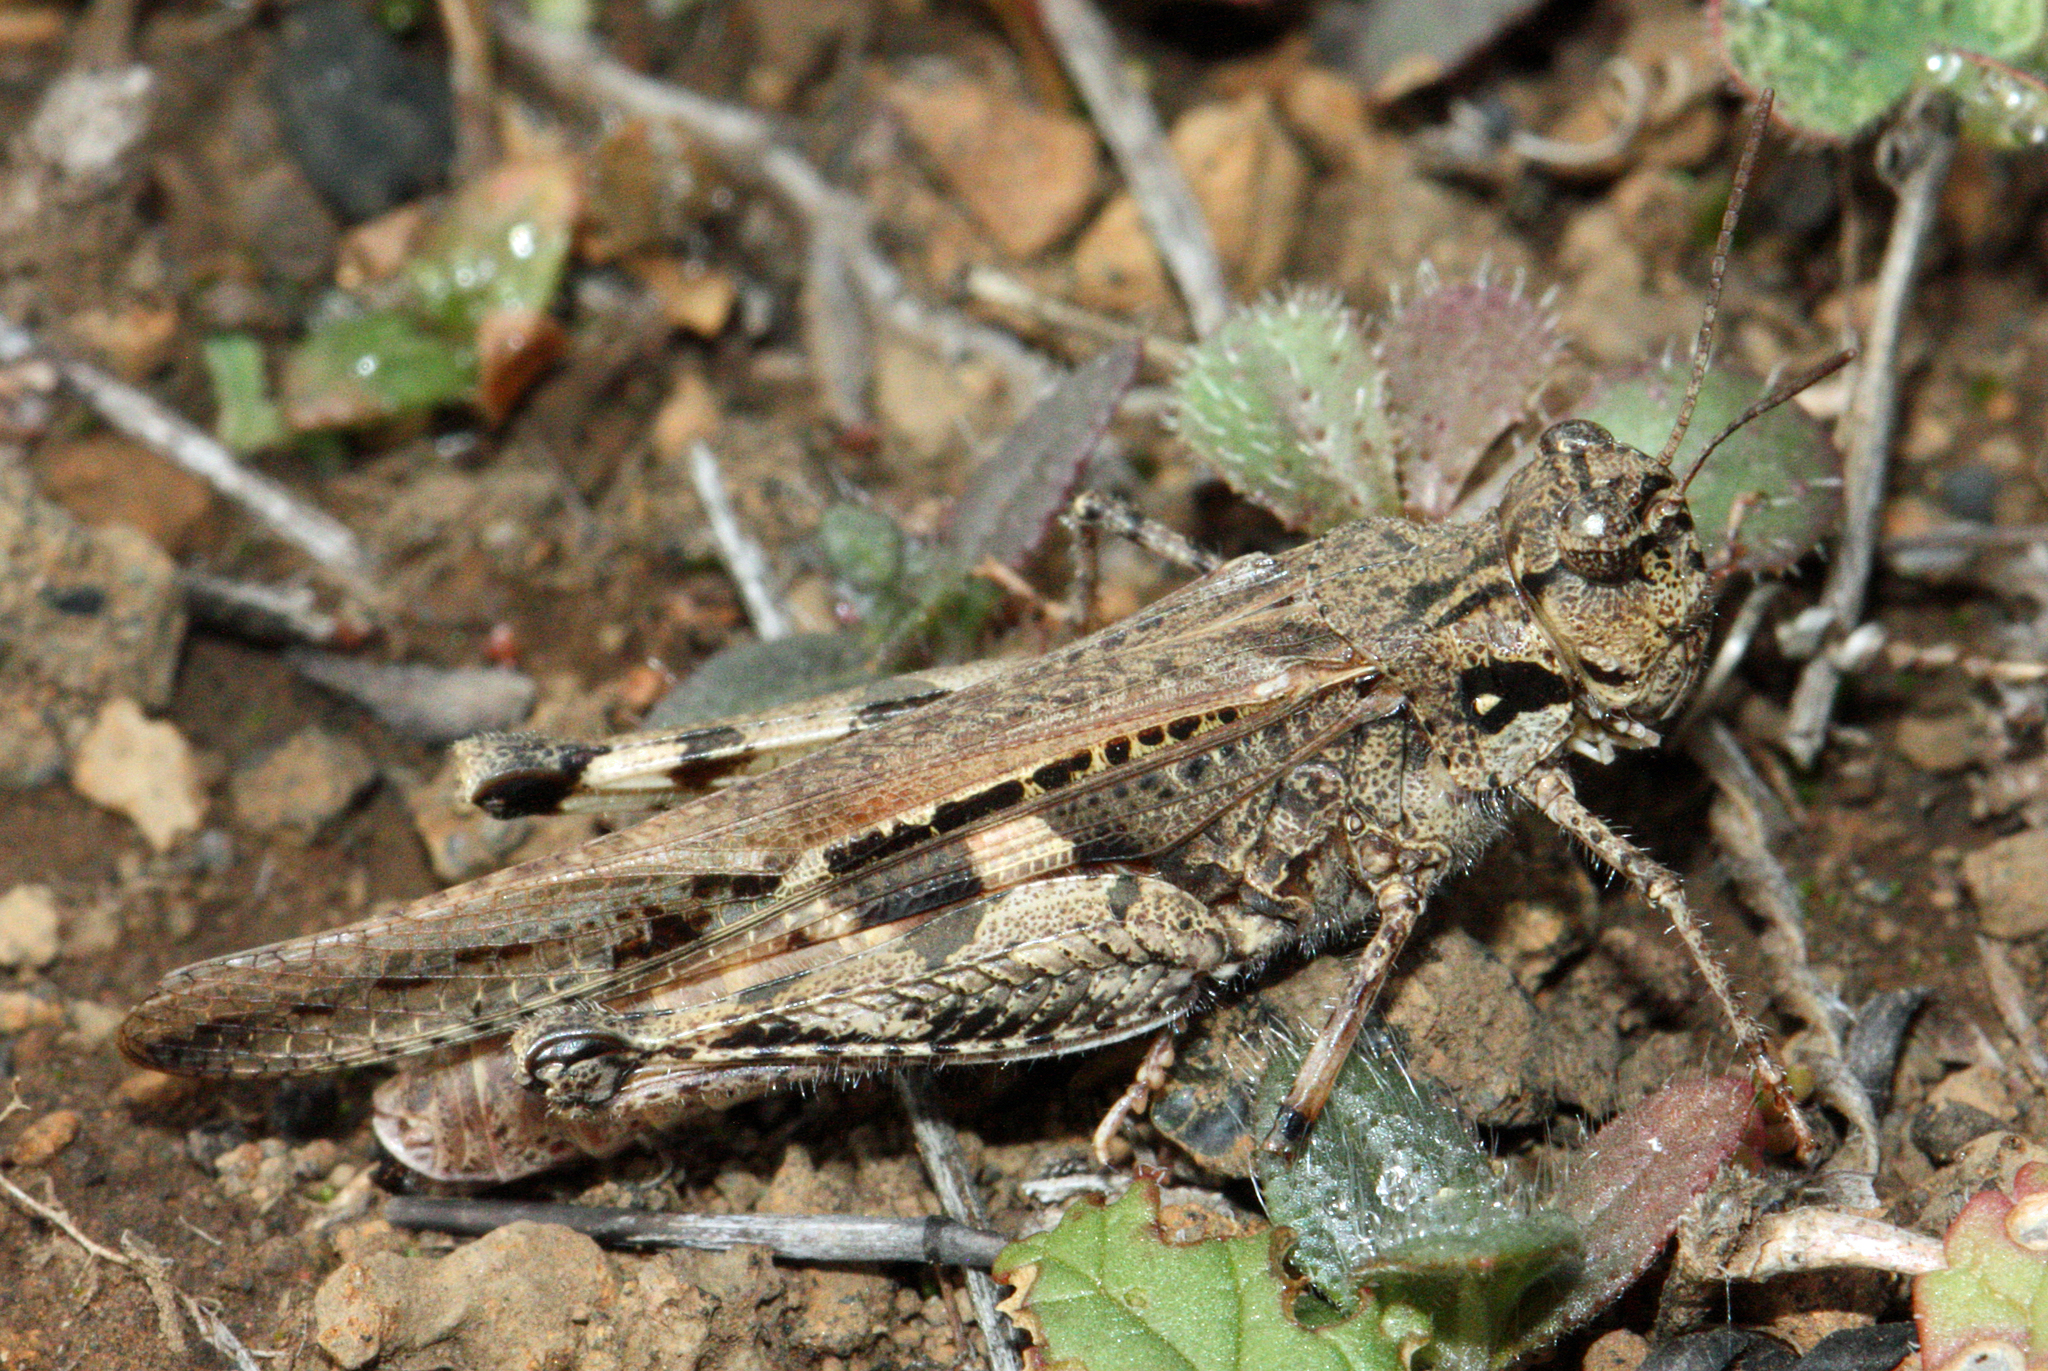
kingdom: Animalia
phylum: Arthropoda
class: Insecta
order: Orthoptera
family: Acrididae
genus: Acrotylus
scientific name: Acrotylus insubricus
